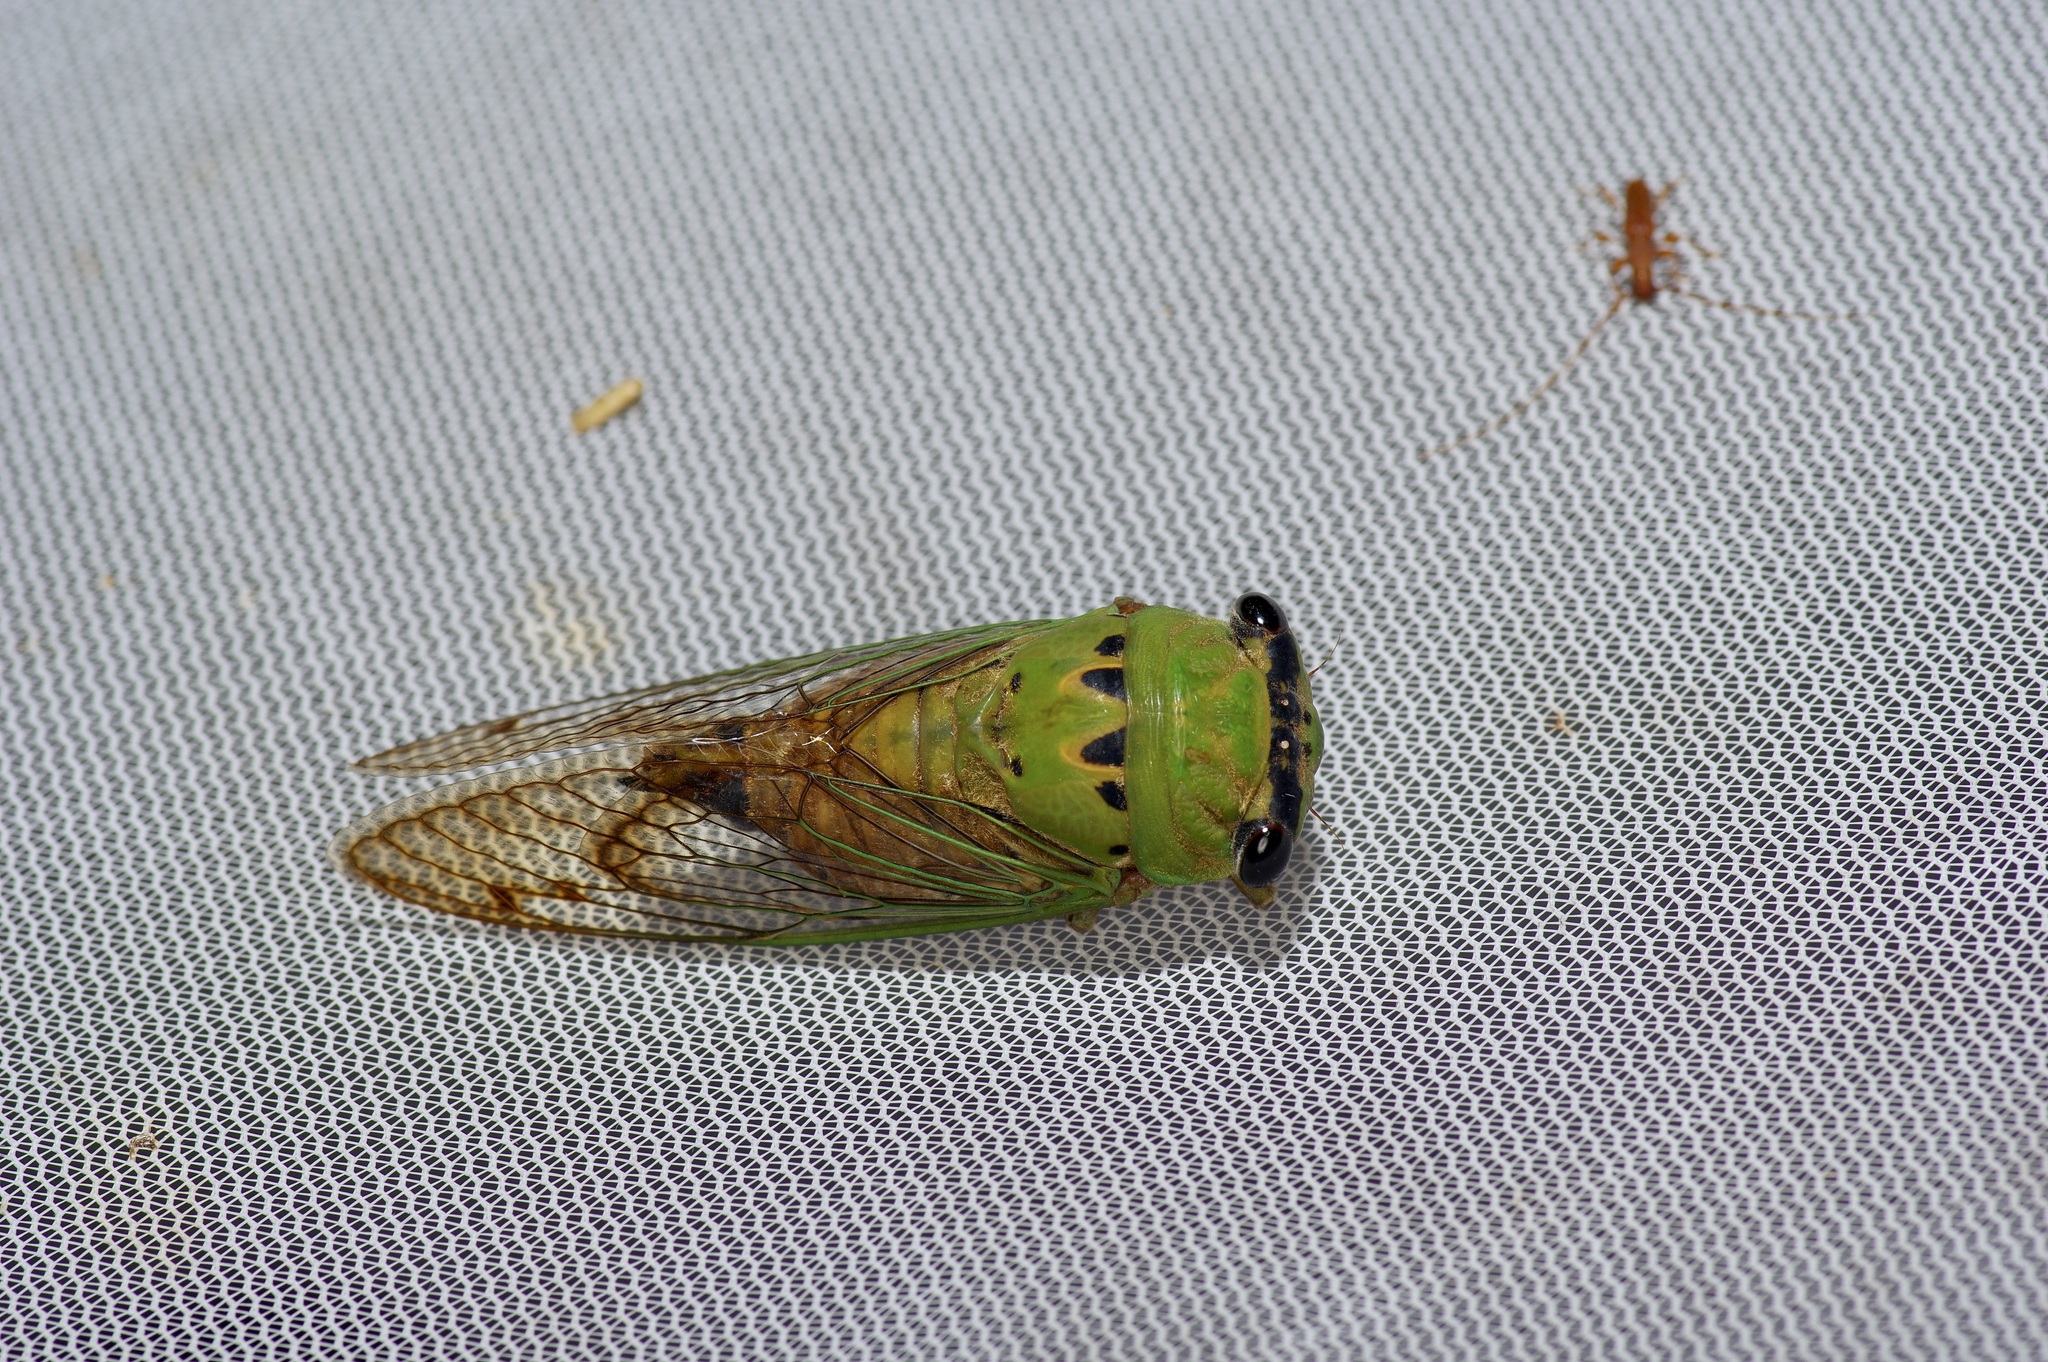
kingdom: Animalia
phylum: Arthropoda
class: Insecta
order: Hemiptera
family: Cicadidae
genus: Neotibicen
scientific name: Neotibicen superbus
